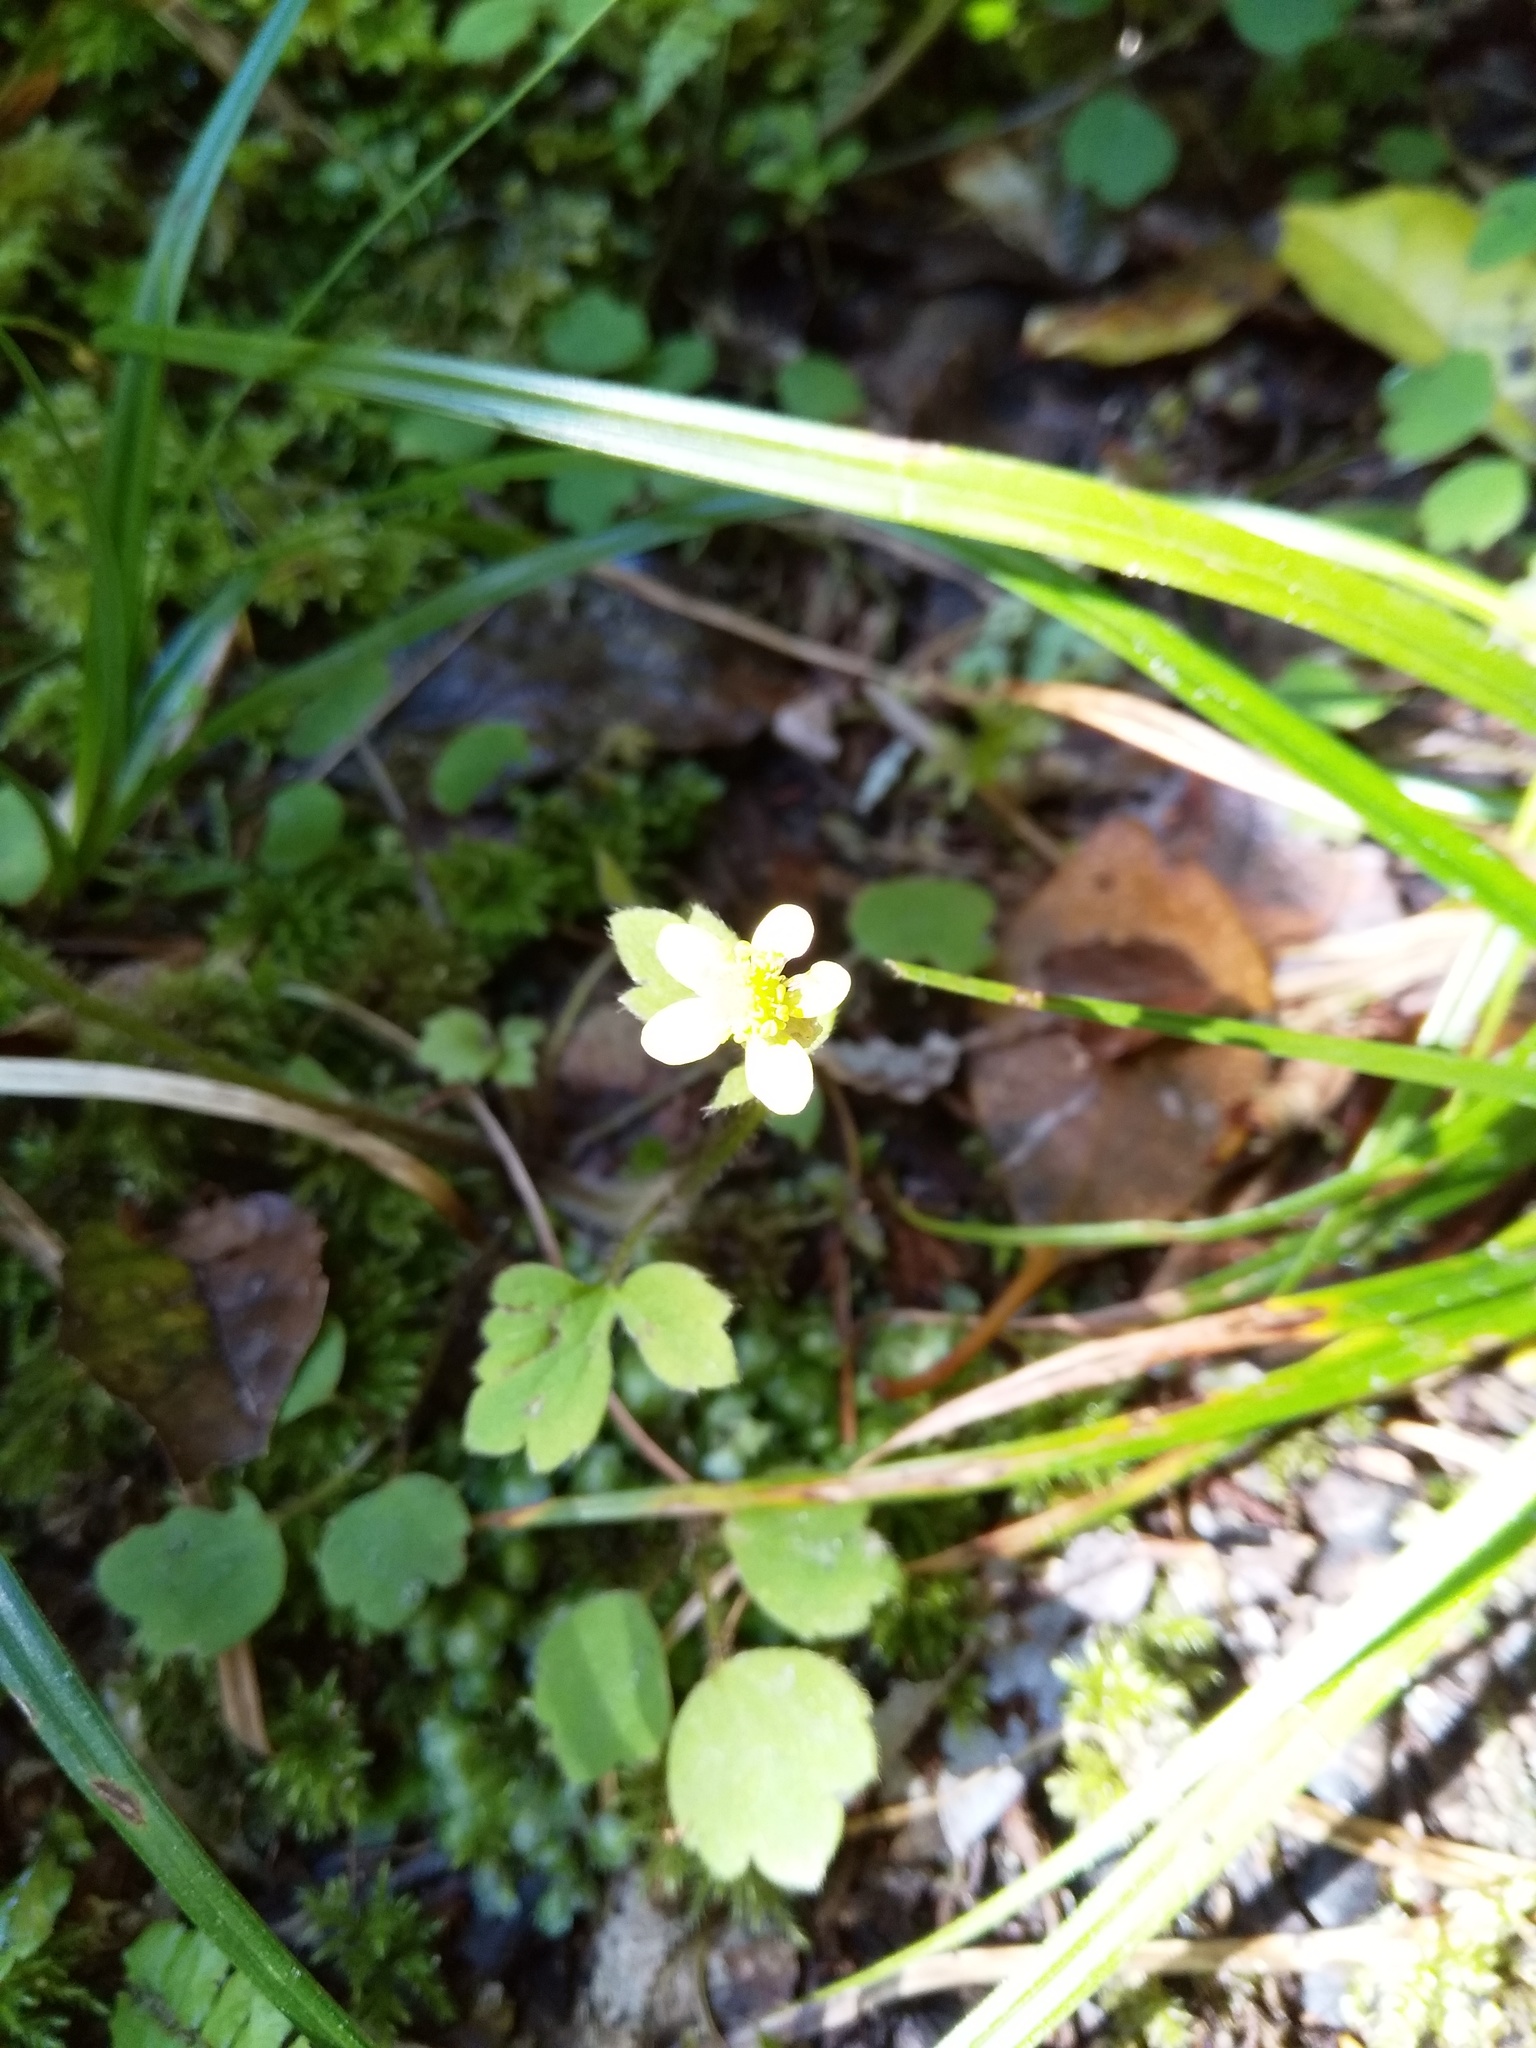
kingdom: Plantae
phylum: Tracheophyta
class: Magnoliopsida
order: Ranunculales
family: Ranunculaceae
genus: Ranunculus
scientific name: Ranunculus reflexus
